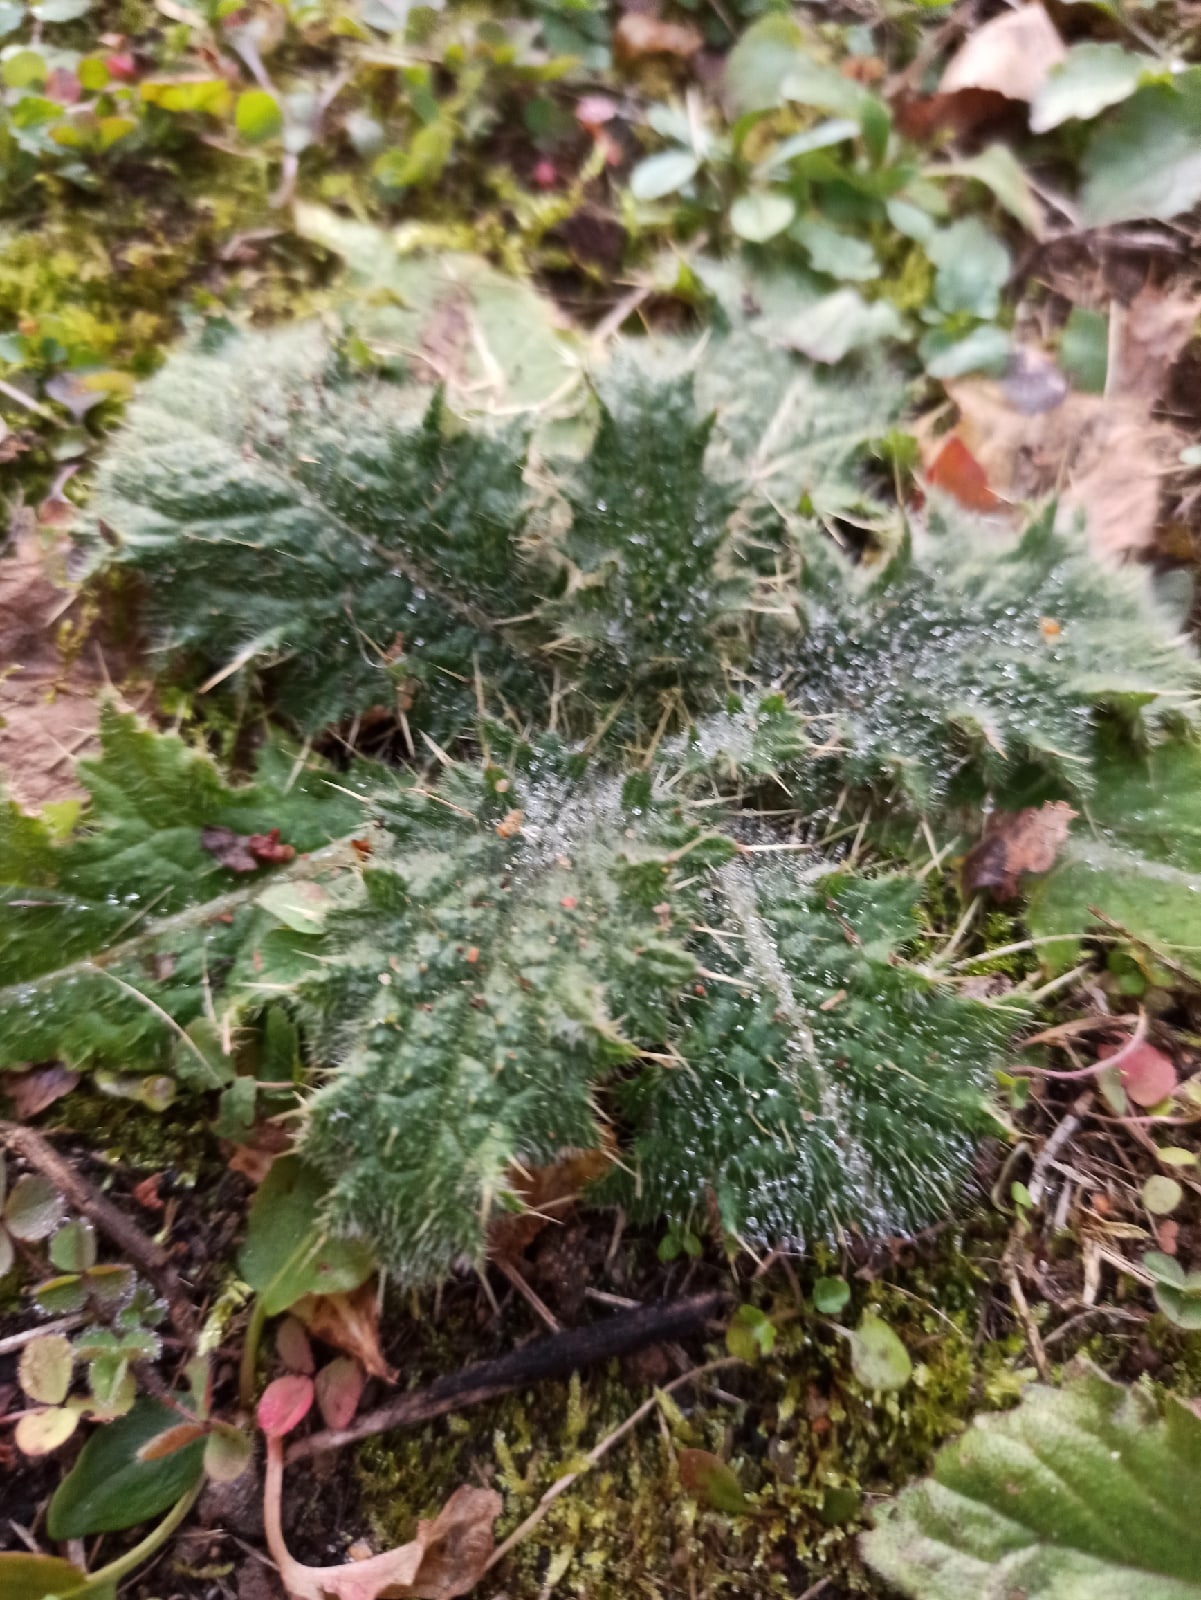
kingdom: Plantae
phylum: Tracheophyta
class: Magnoliopsida
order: Asterales
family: Asteraceae
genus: Cirsium
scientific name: Cirsium vulgare
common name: Bull thistle
